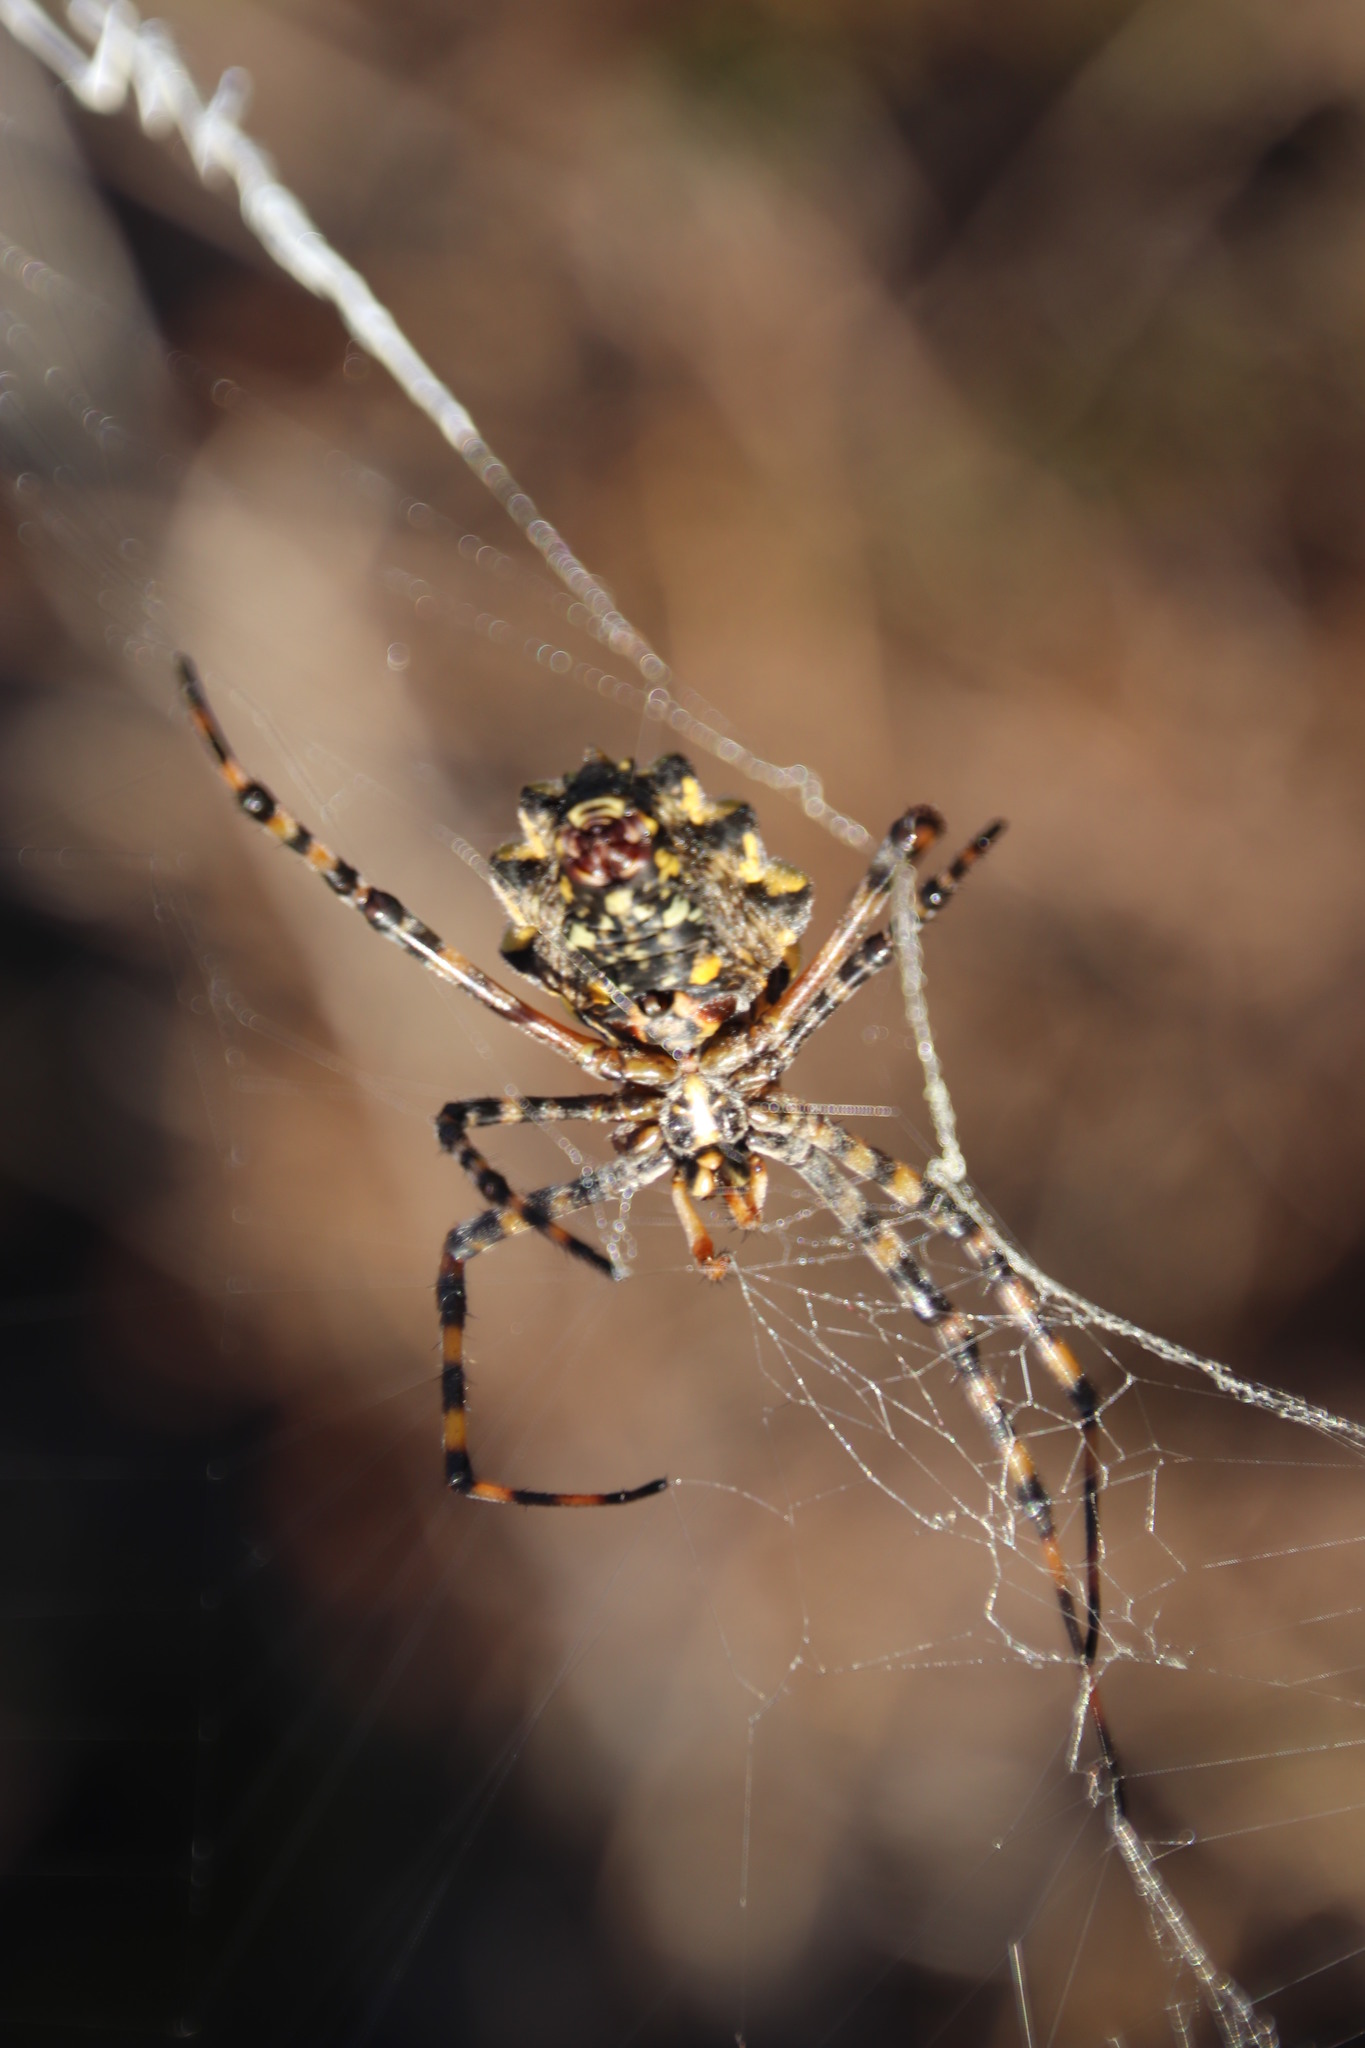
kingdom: Animalia
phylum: Arthropoda
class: Arachnida
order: Araneae
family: Araneidae
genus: Argiope
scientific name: Argiope australis
